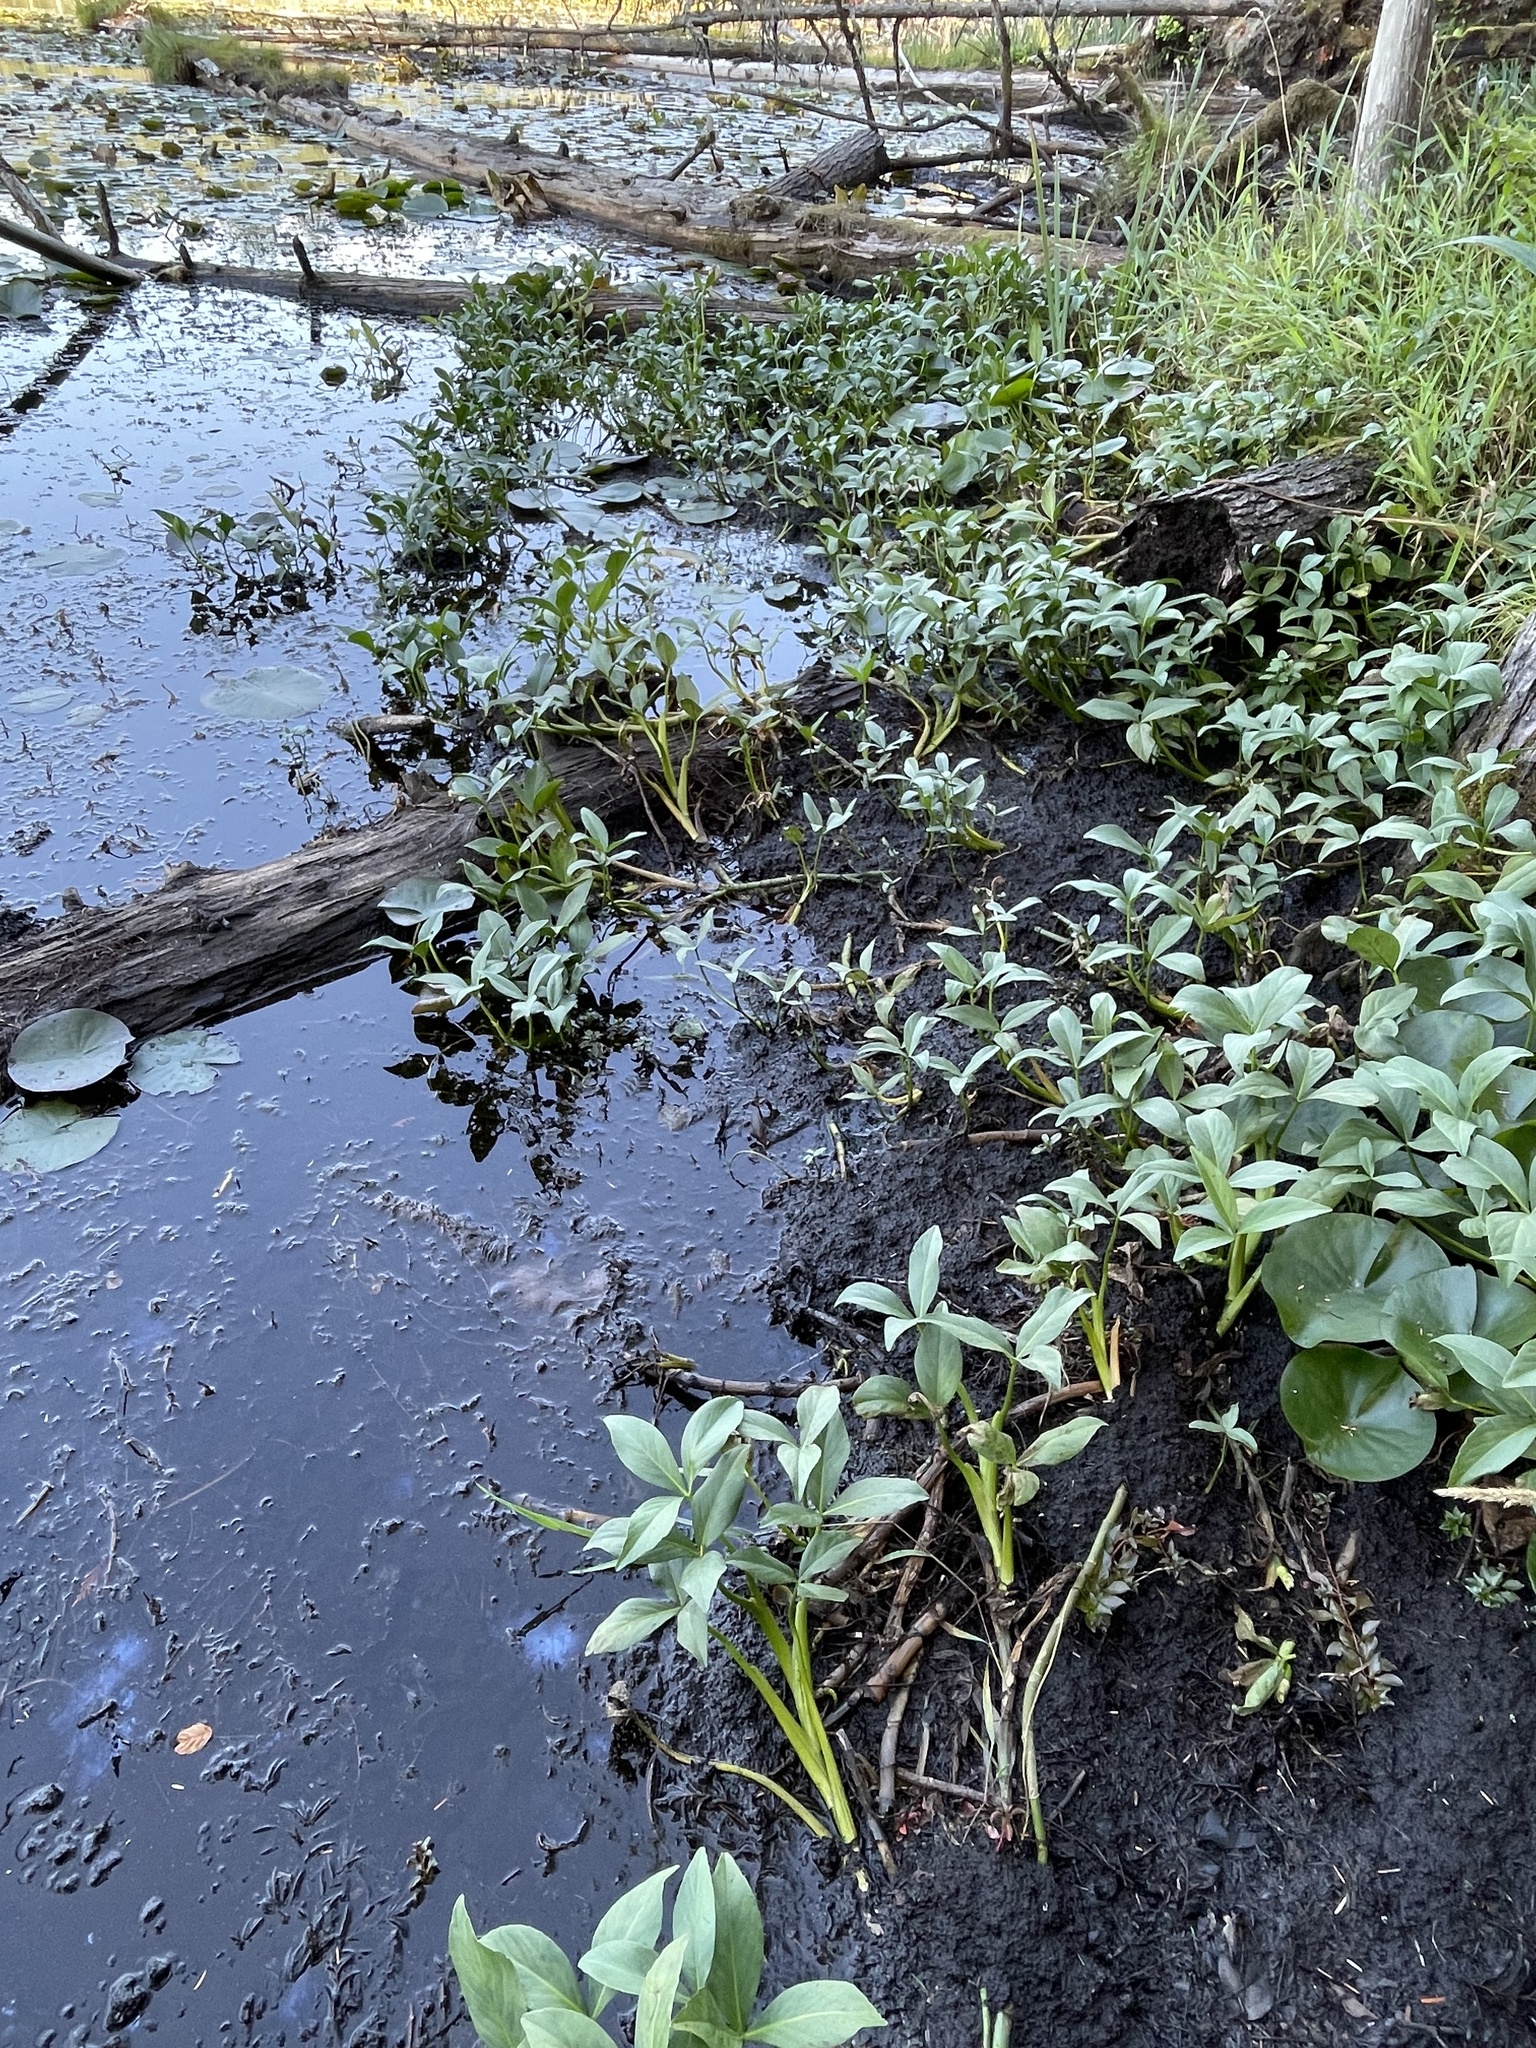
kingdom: Plantae
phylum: Tracheophyta
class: Magnoliopsida
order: Asterales
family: Menyanthaceae
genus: Menyanthes
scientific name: Menyanthes trifoliata
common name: Bogbean
